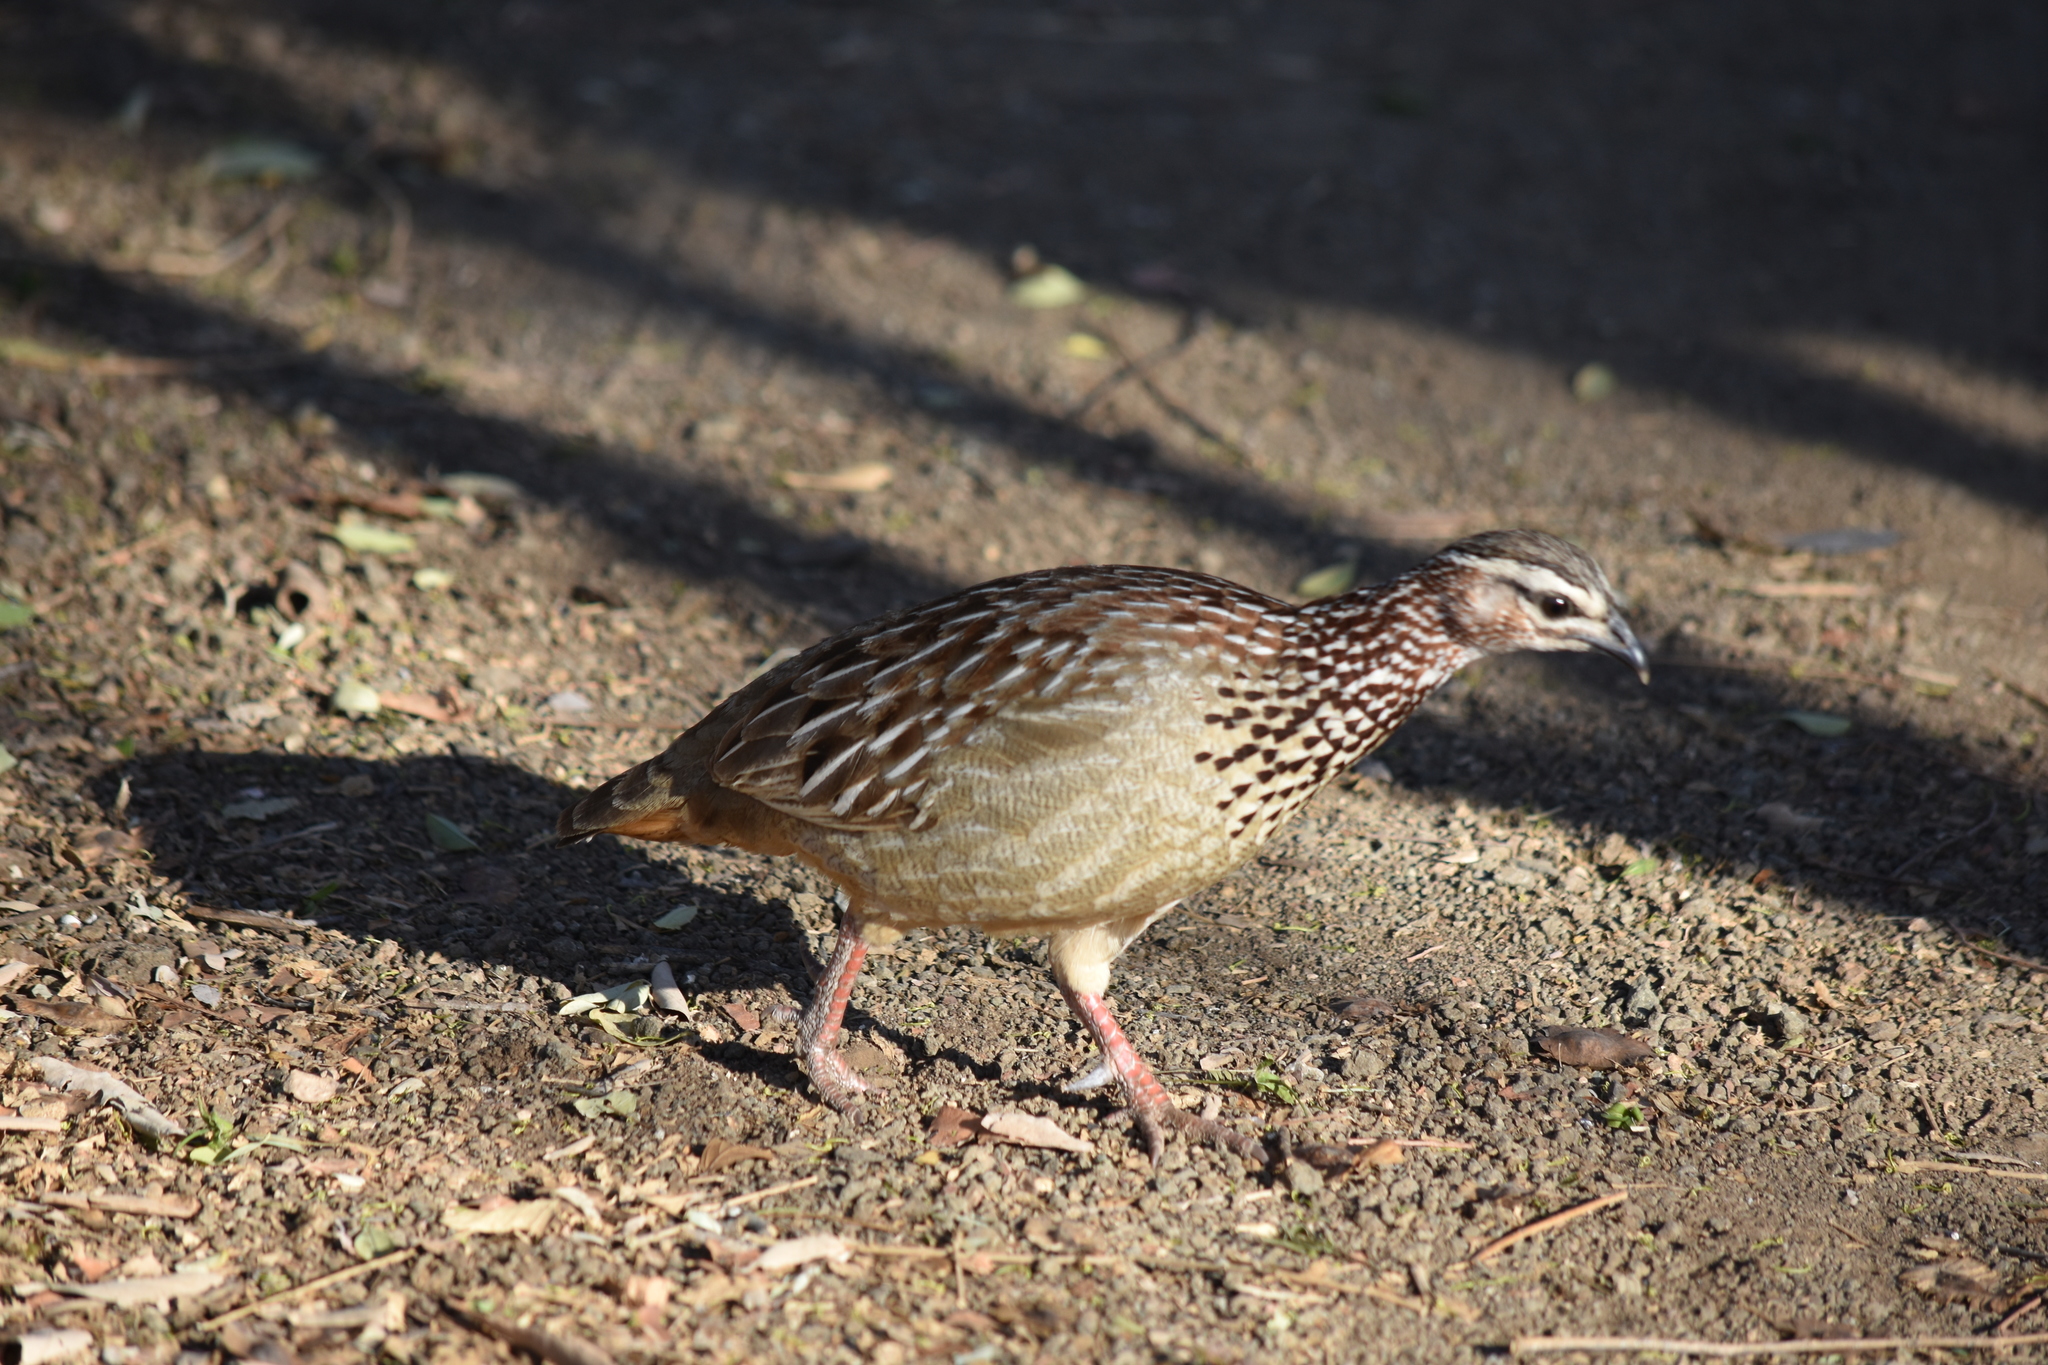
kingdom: Animalia
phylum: Chordata
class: Aves
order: Galliformes
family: Phasianidae
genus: Ortygornis
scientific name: Ortygornis sephaena
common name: Crested francolin
